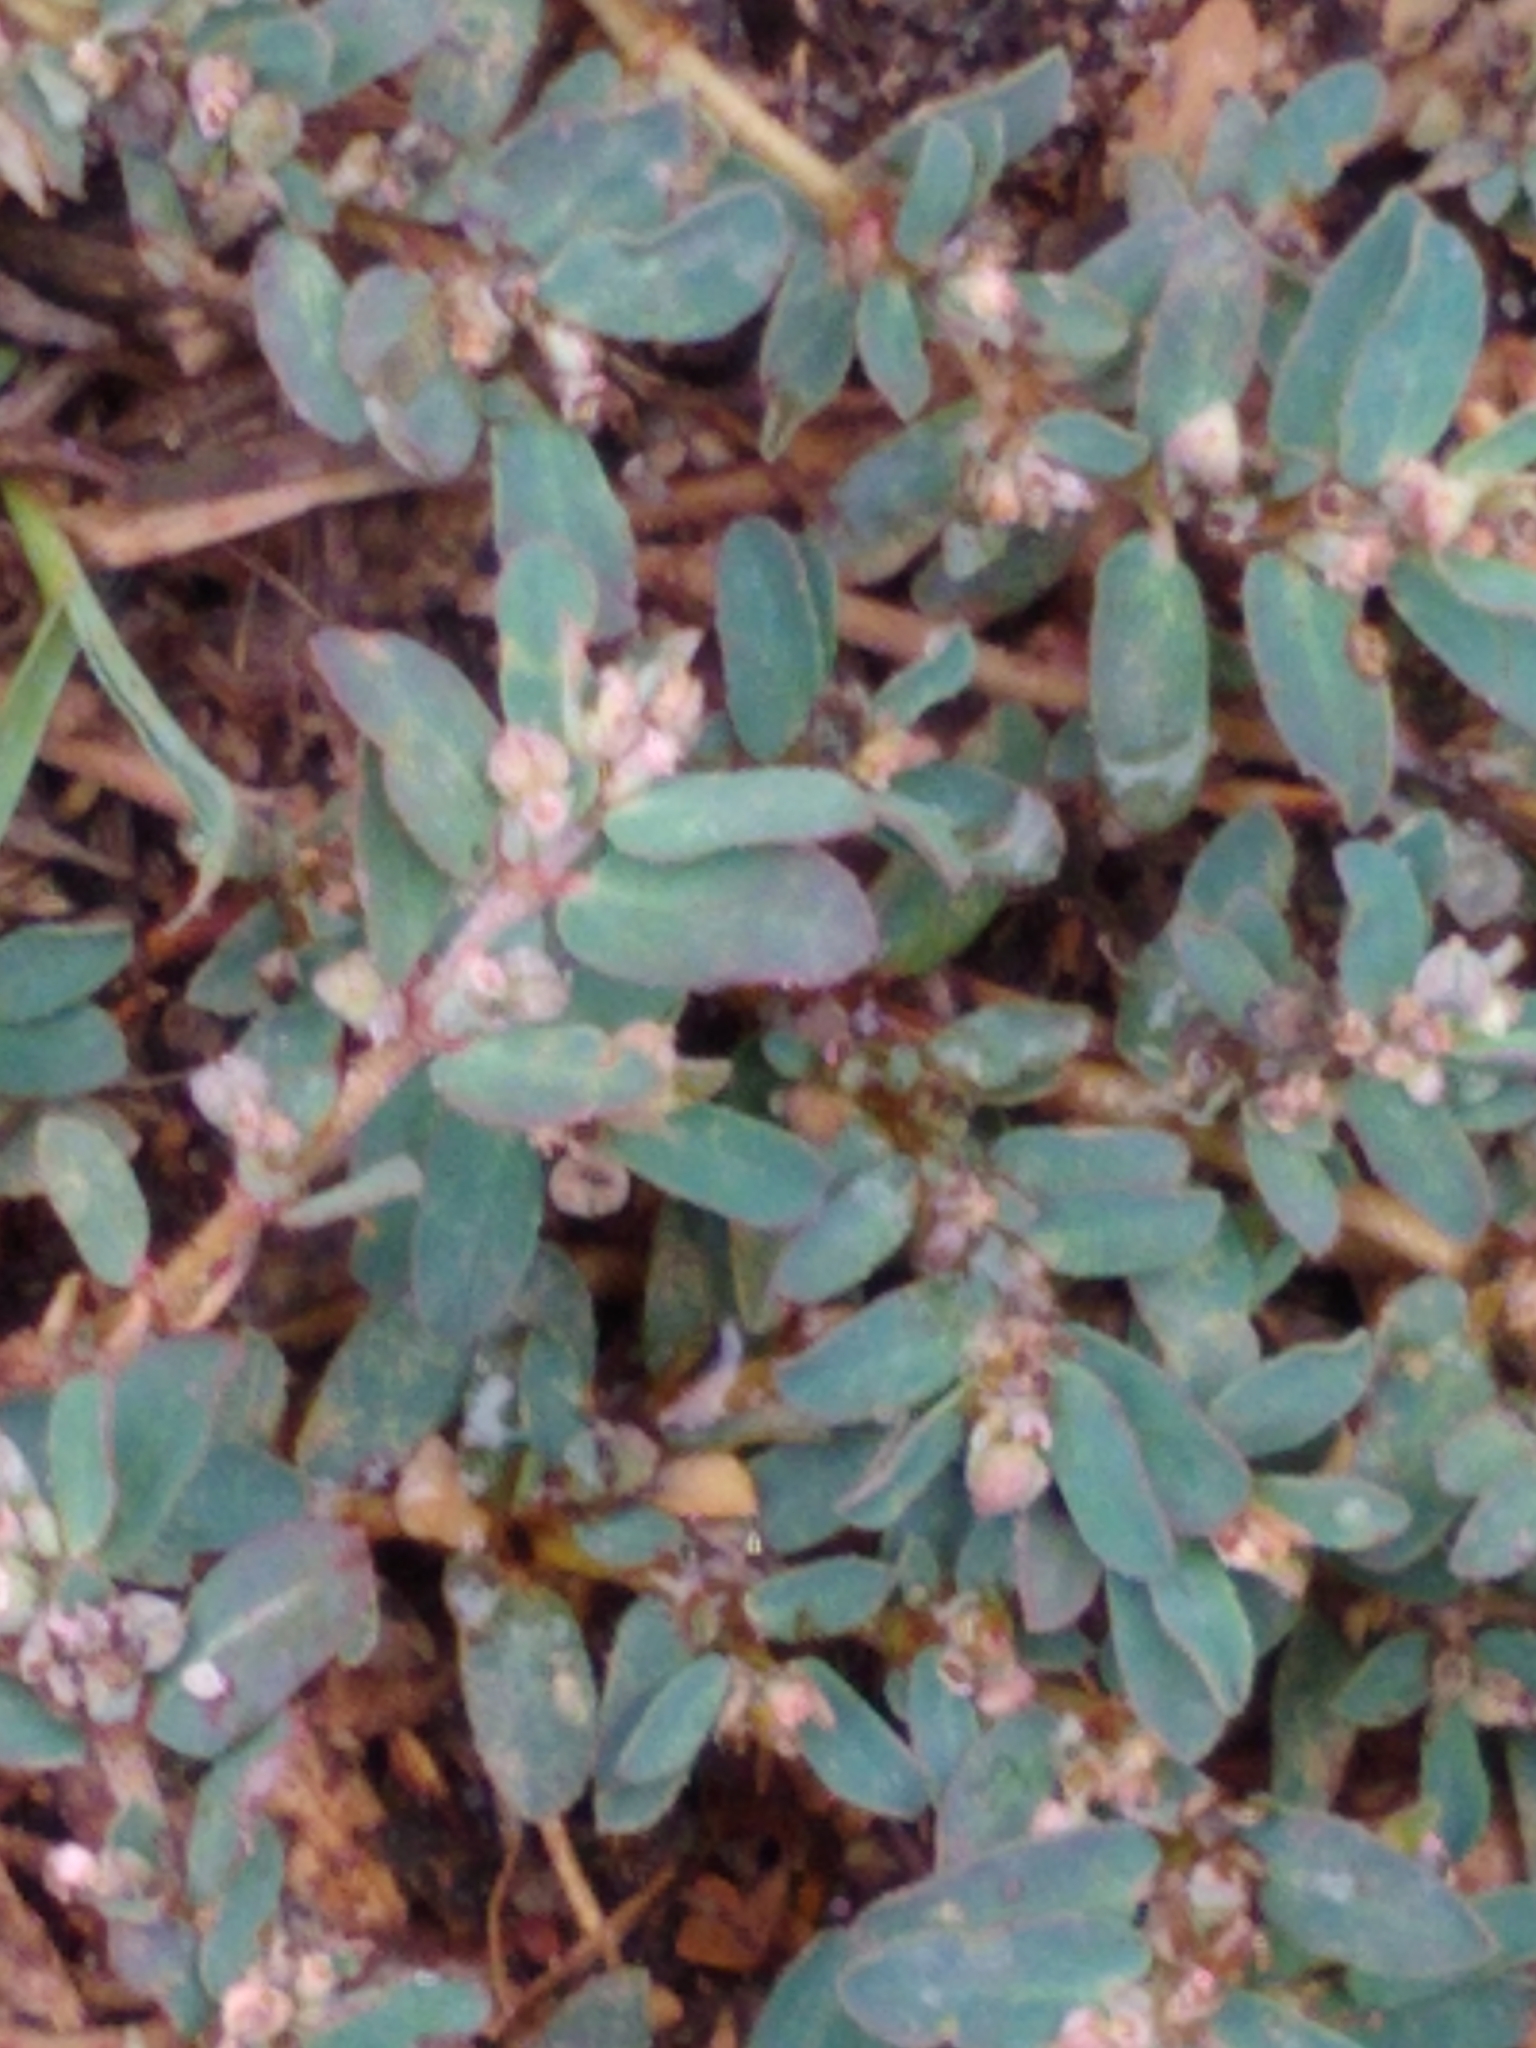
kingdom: Plantae
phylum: Tracheophyta
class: Magnoliopsida
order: Malpighiales
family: Euphorbiaceae
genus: Euphorbia
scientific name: Euphorbia maculata
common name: Spotted spurge
